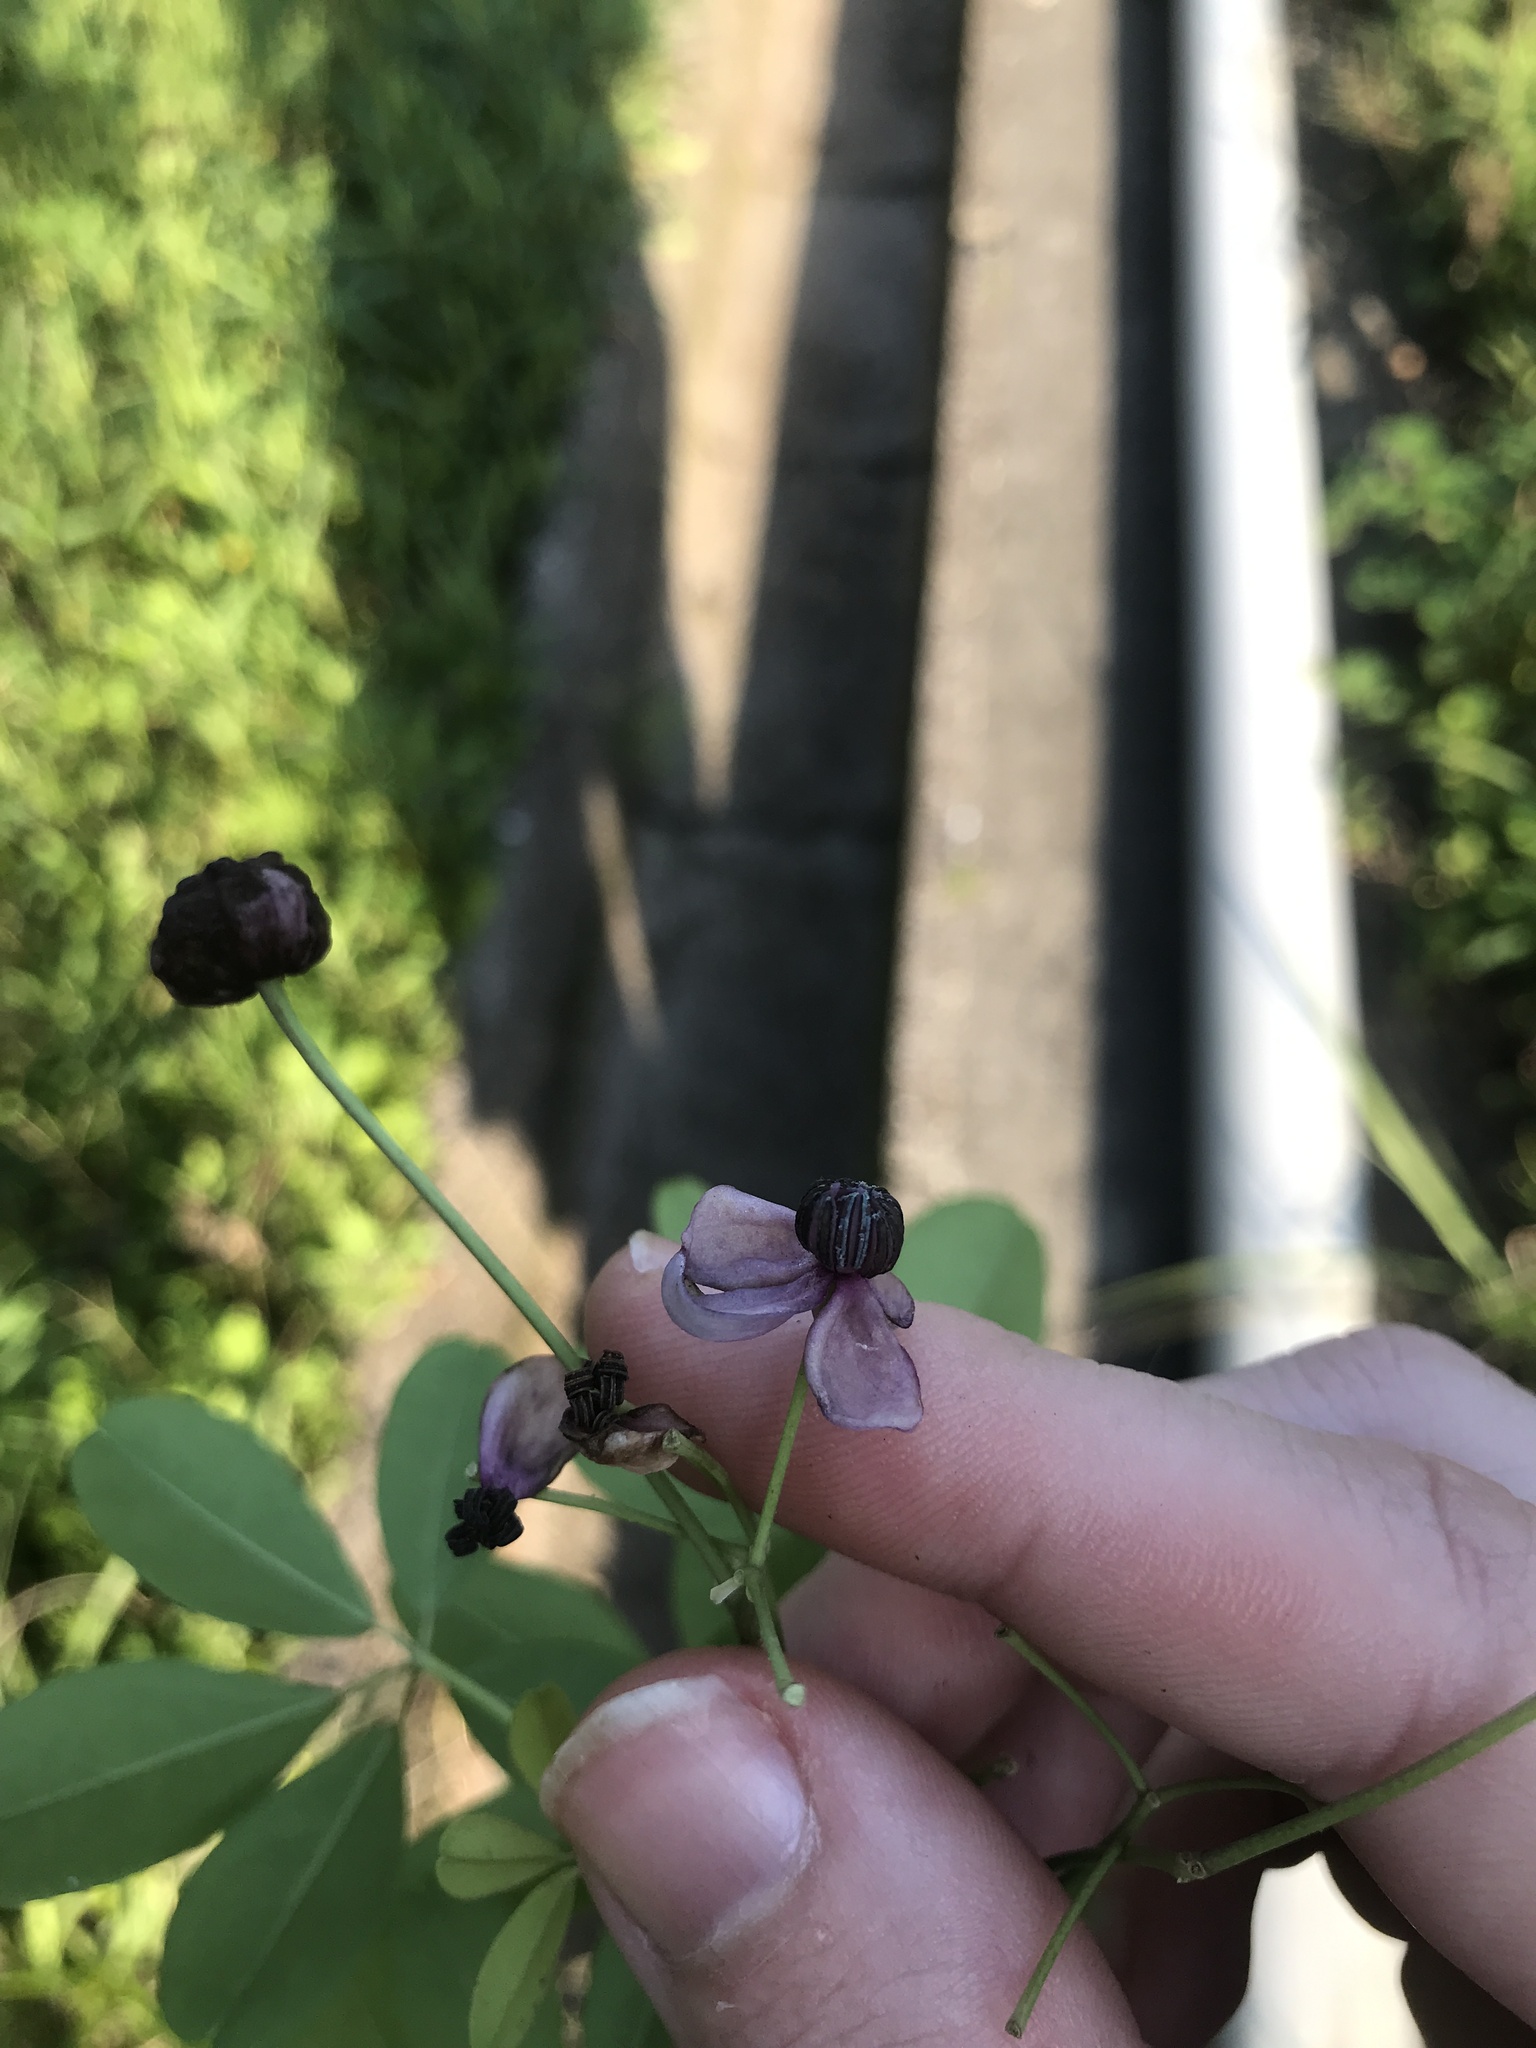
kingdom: Plantae
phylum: Tracheophyta
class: Magnoliopsida
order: Ranunculales
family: Lardizabalaceae
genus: Akebia
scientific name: Akebia quinata
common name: Five-leaf akebia
